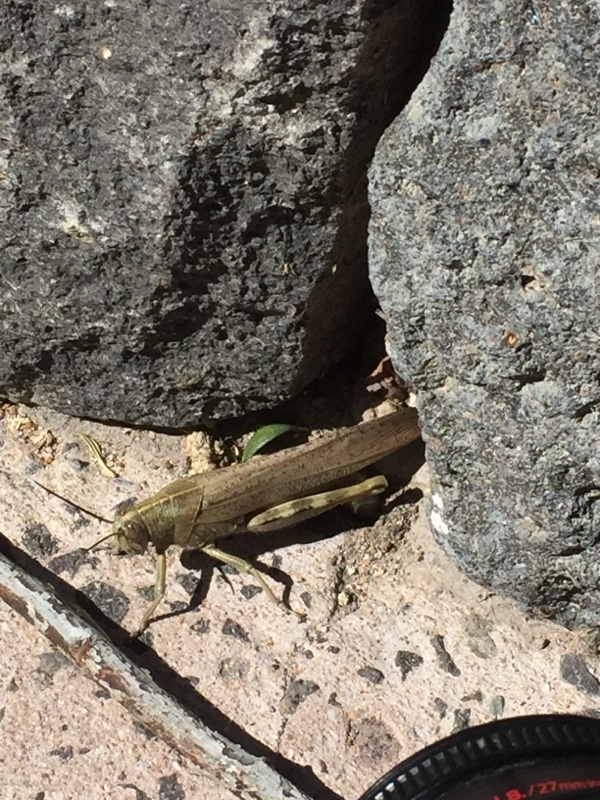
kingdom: Animalia
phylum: Arthropoda
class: Insecta
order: Orthoptera
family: Acrididae
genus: Anacridium
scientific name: Anacridium aegyptium
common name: Egyptian grasshopper
